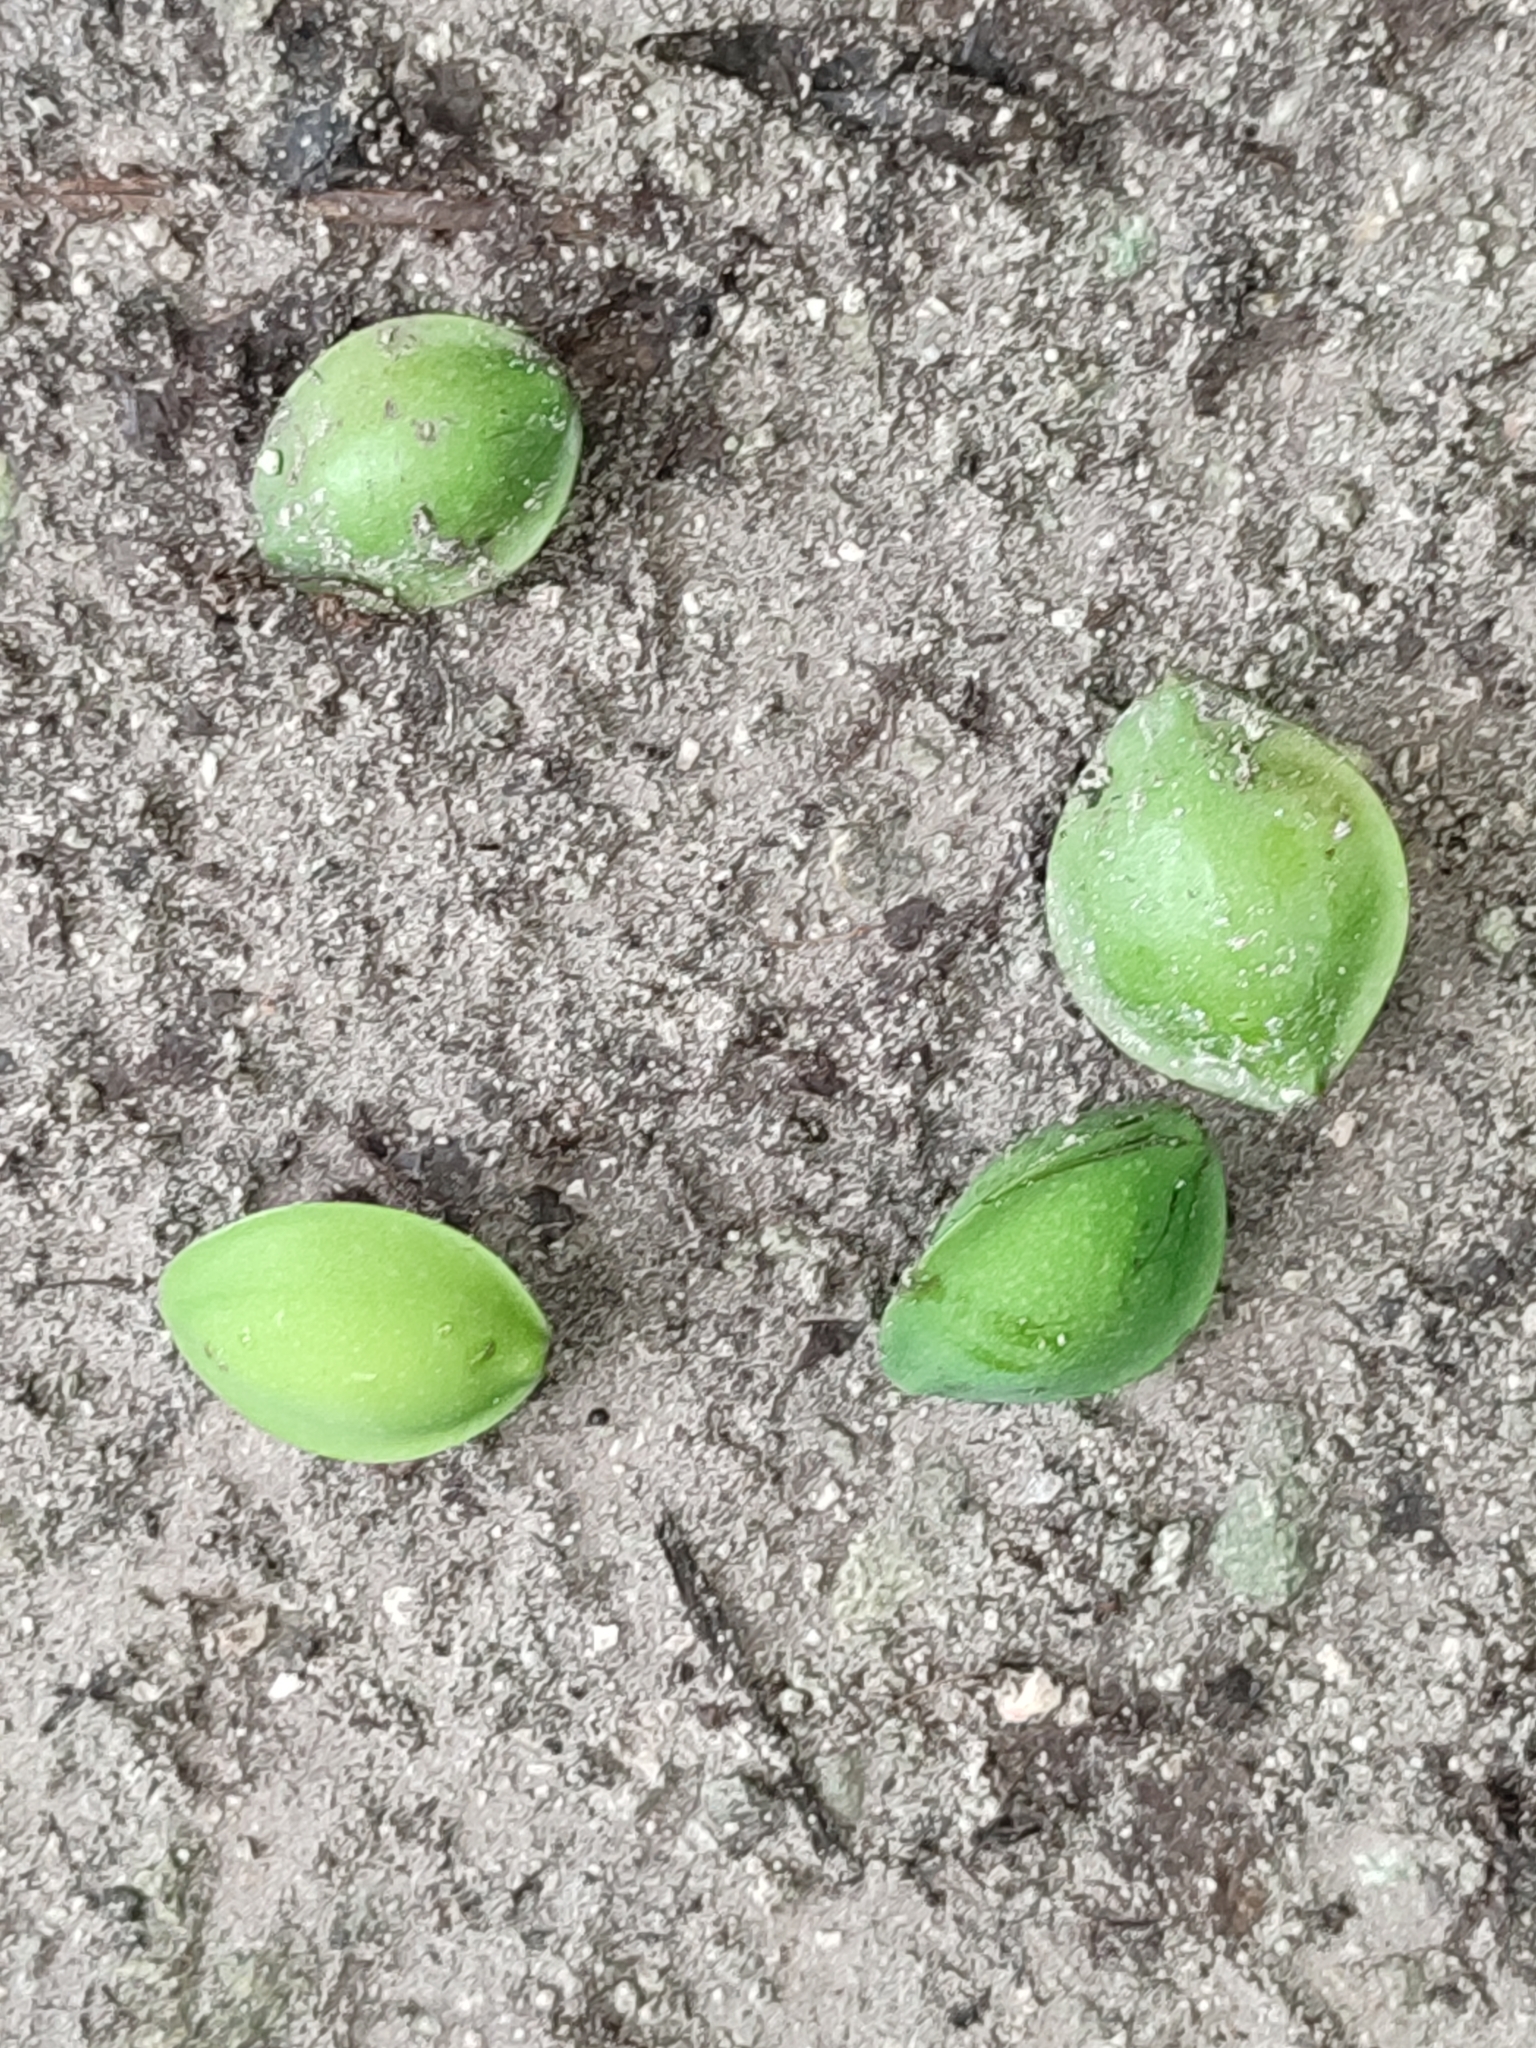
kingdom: Plantae
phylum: Tracheophyta
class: Magnoliopsida
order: Myrtales
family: Combretaceae
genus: Terminalia
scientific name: Terminalia catappa
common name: Tropical almond
